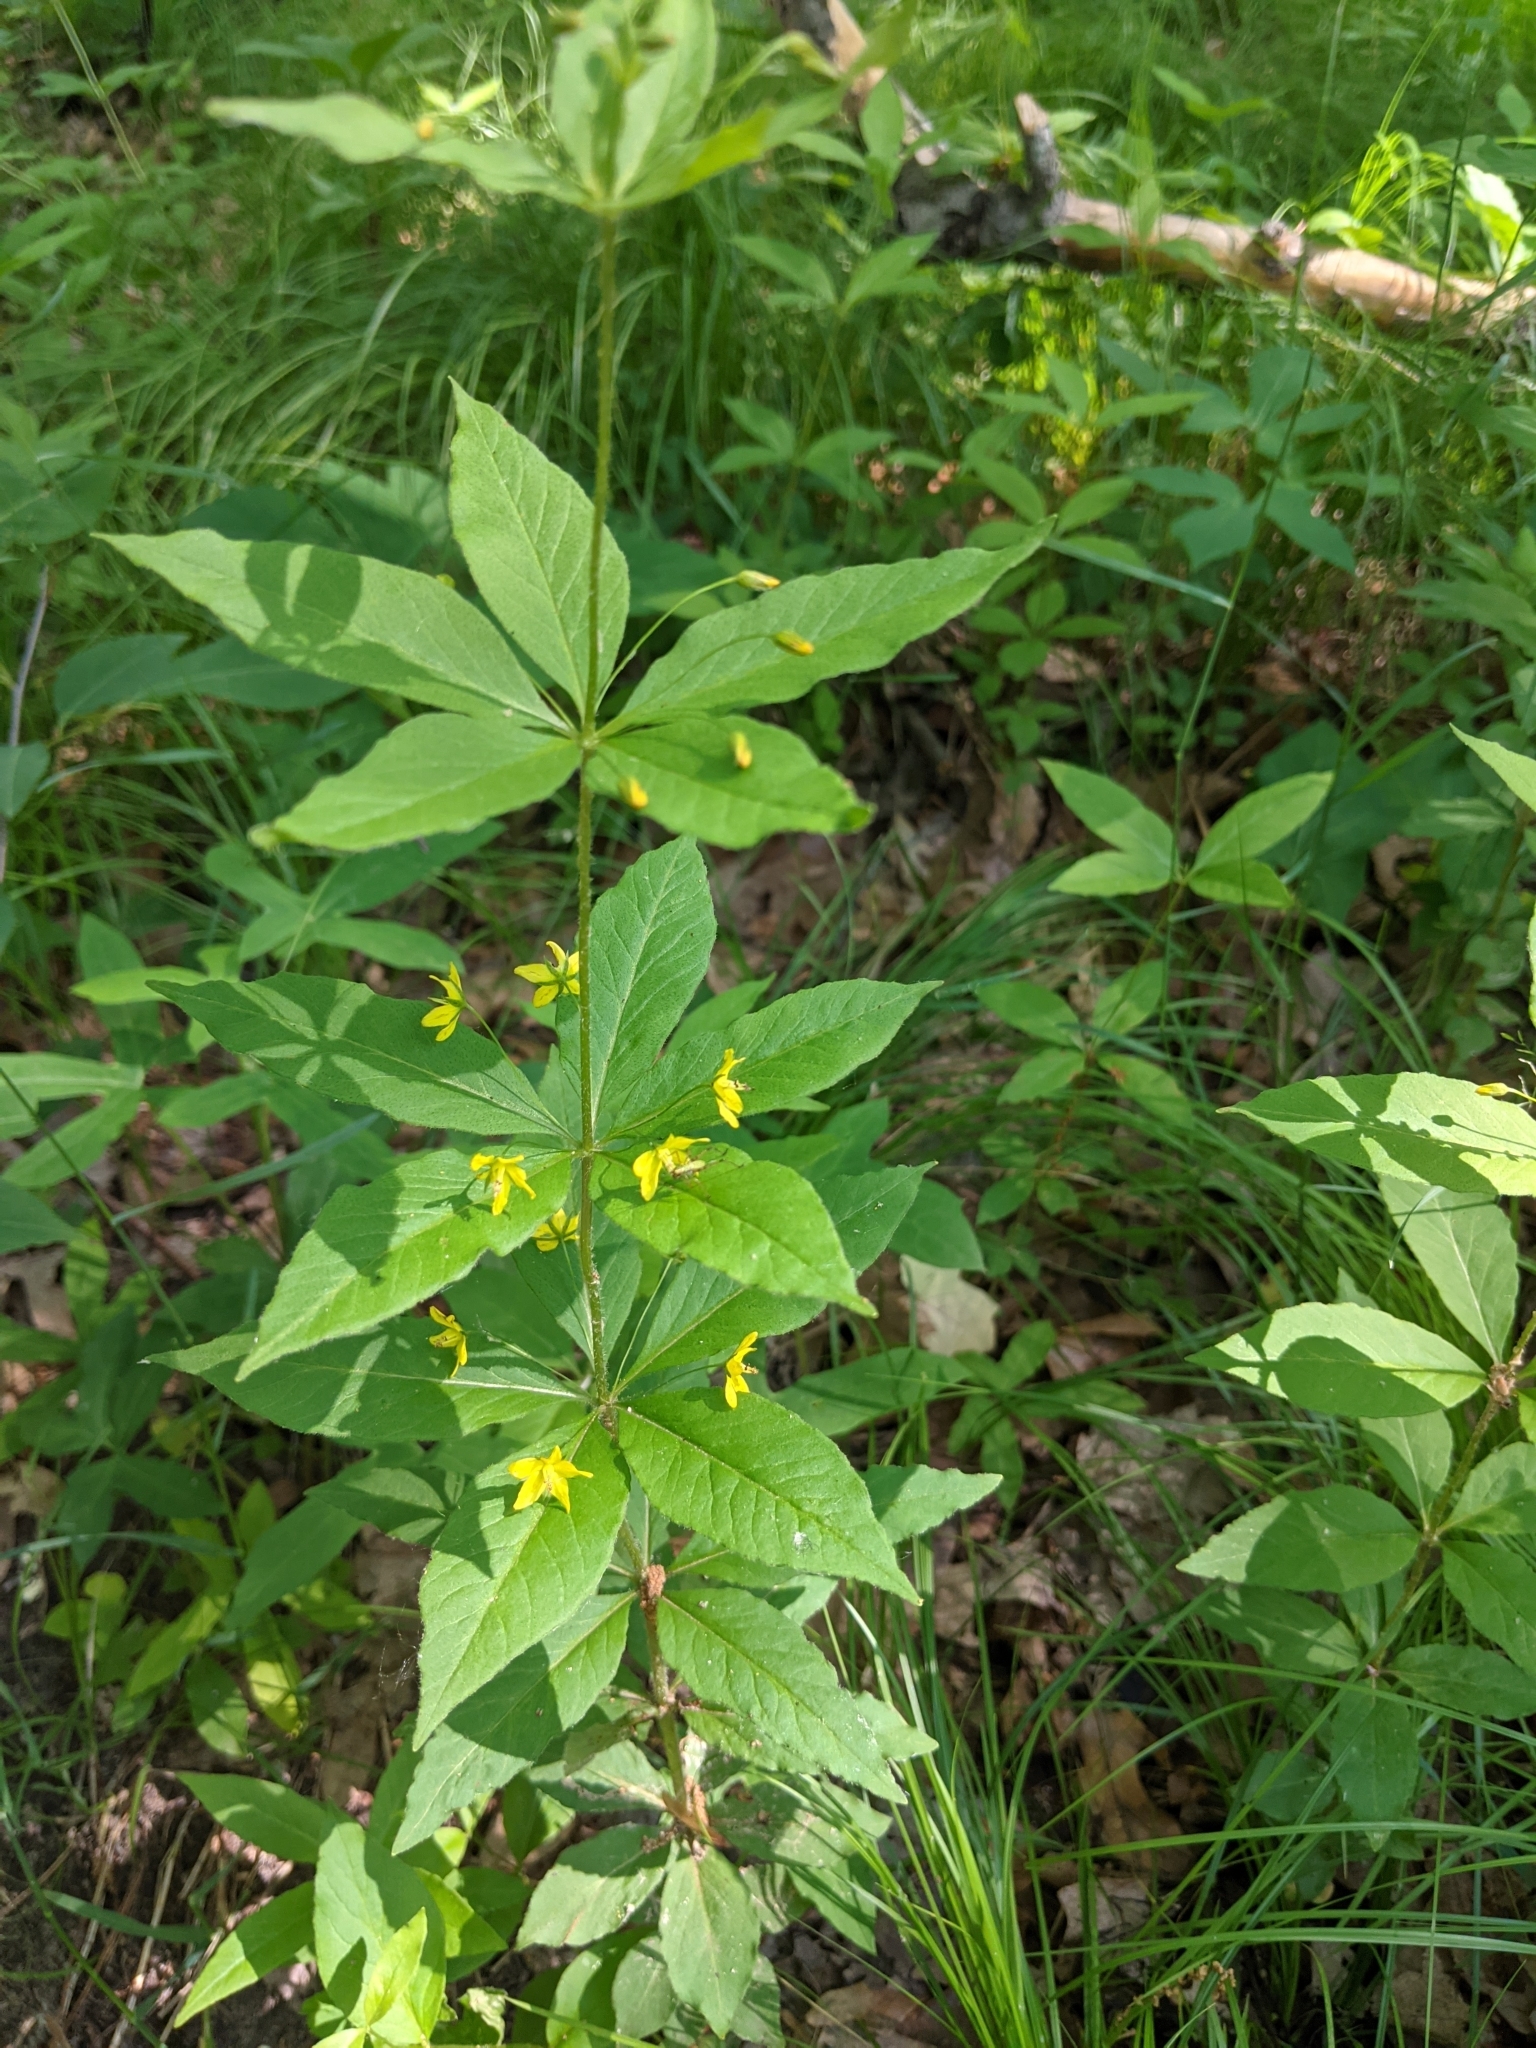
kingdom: Plantae
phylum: Tracheophyta
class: Magnoliopsida
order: Ericales
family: Primulaceae
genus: Lysimachia
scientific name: Lysimachia quadrifolia
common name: Whorled loosestrife
